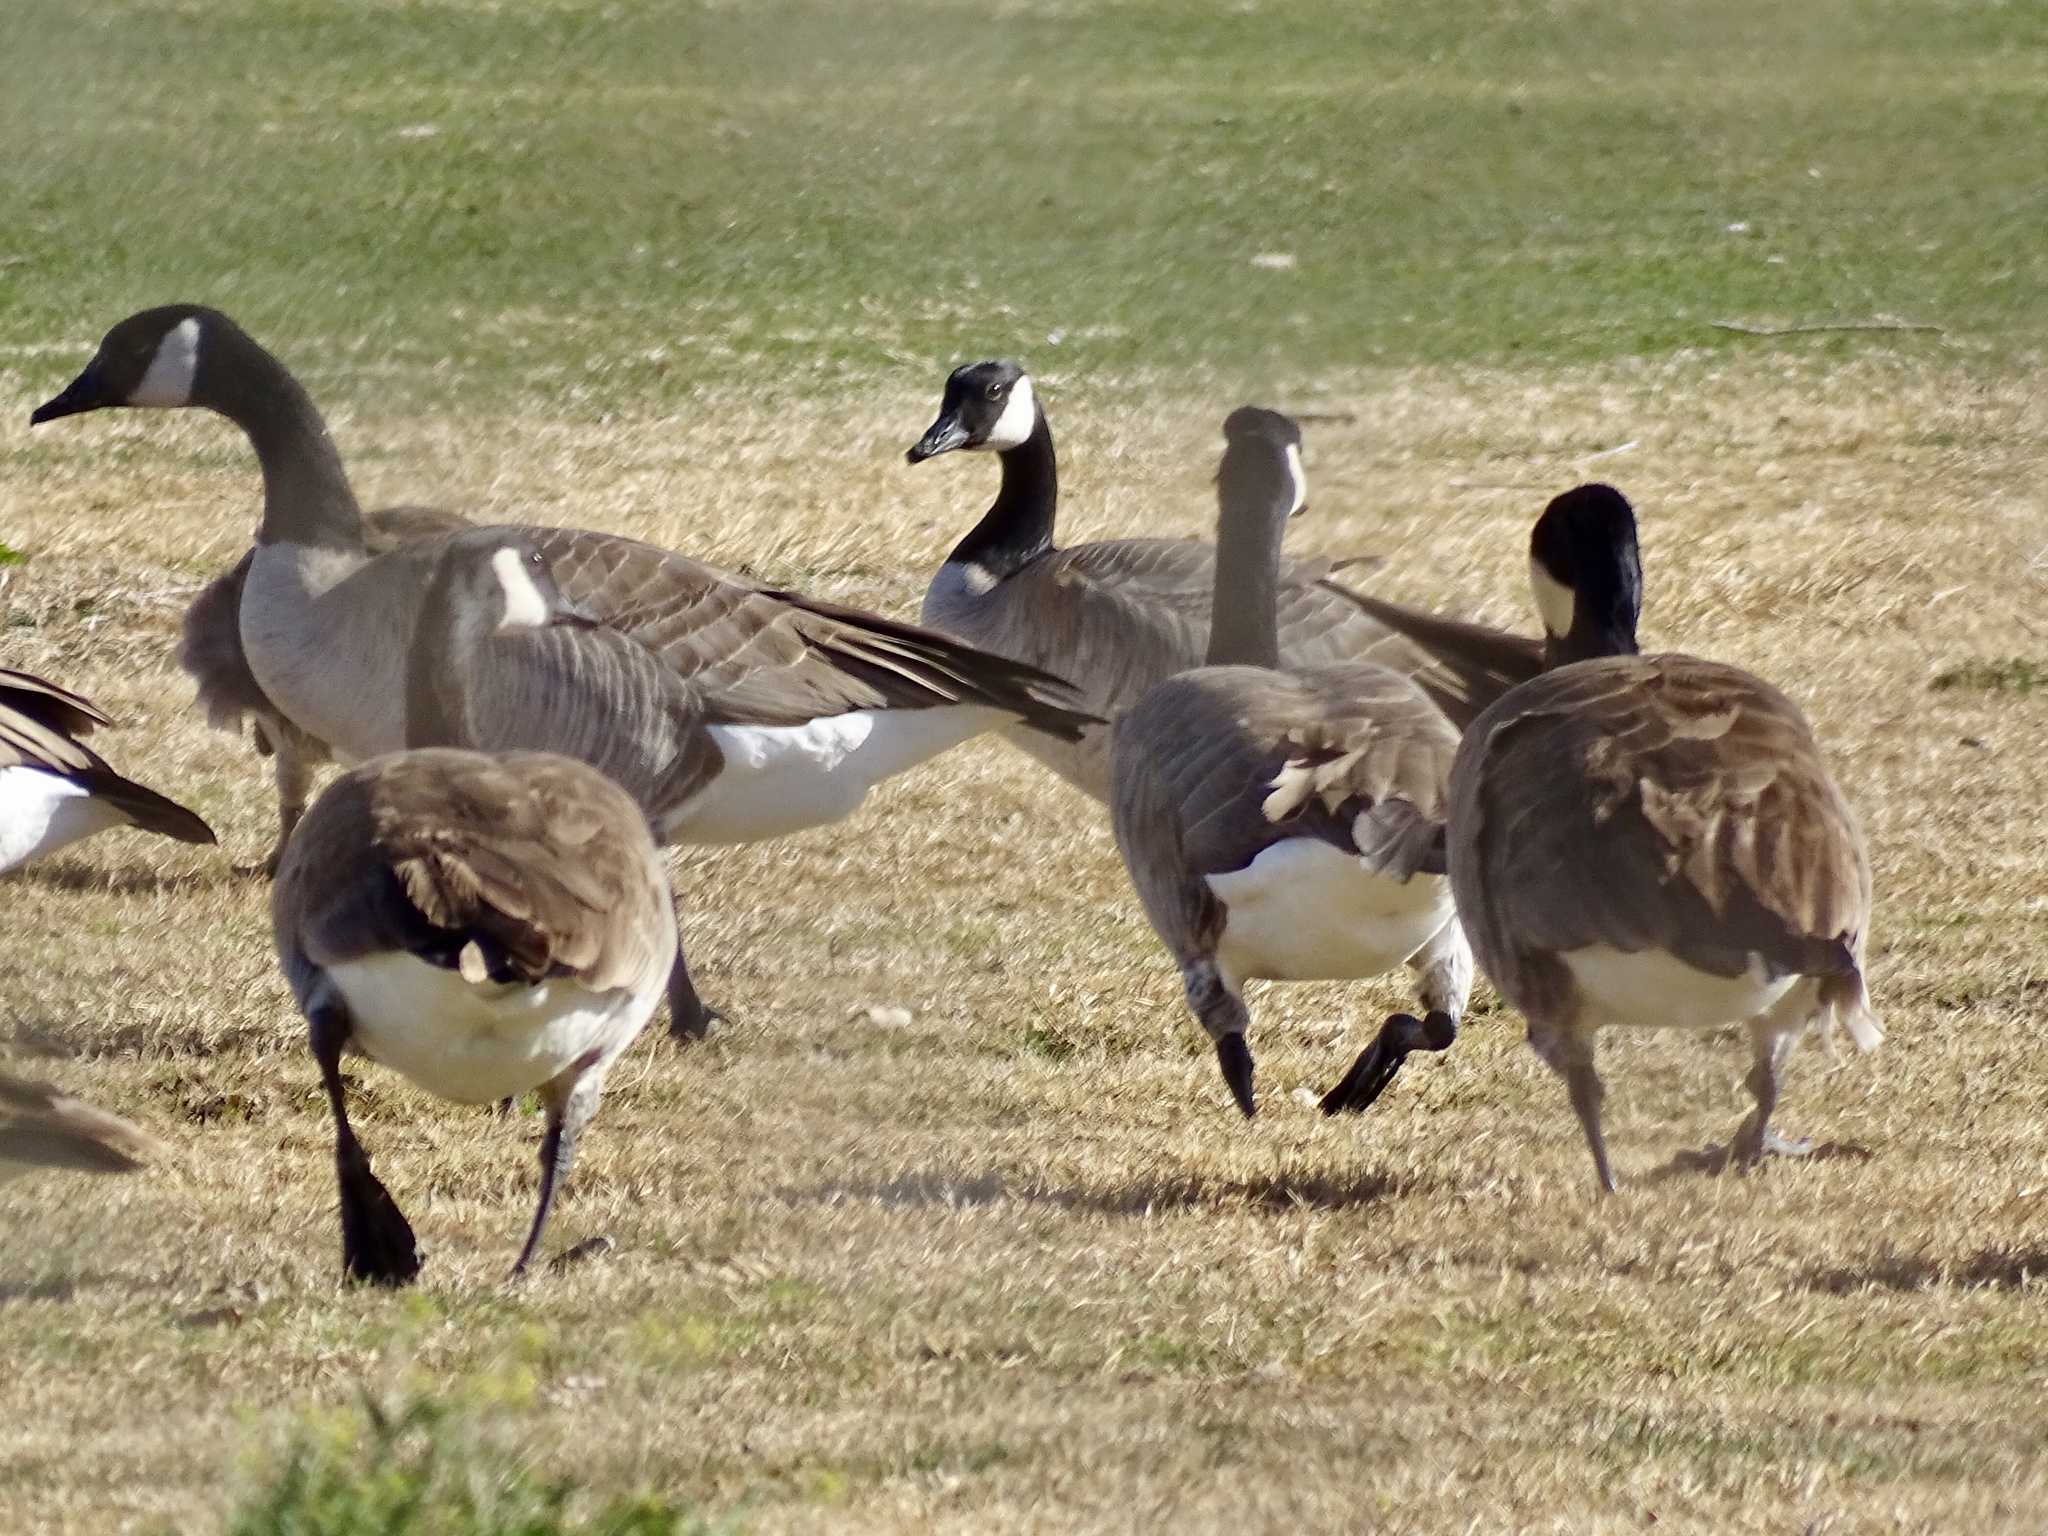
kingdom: Animalia
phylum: Chordata
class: Aves
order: Anseriformes
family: Anatidae
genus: Branta
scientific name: Branta canadensis
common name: Canada goose
